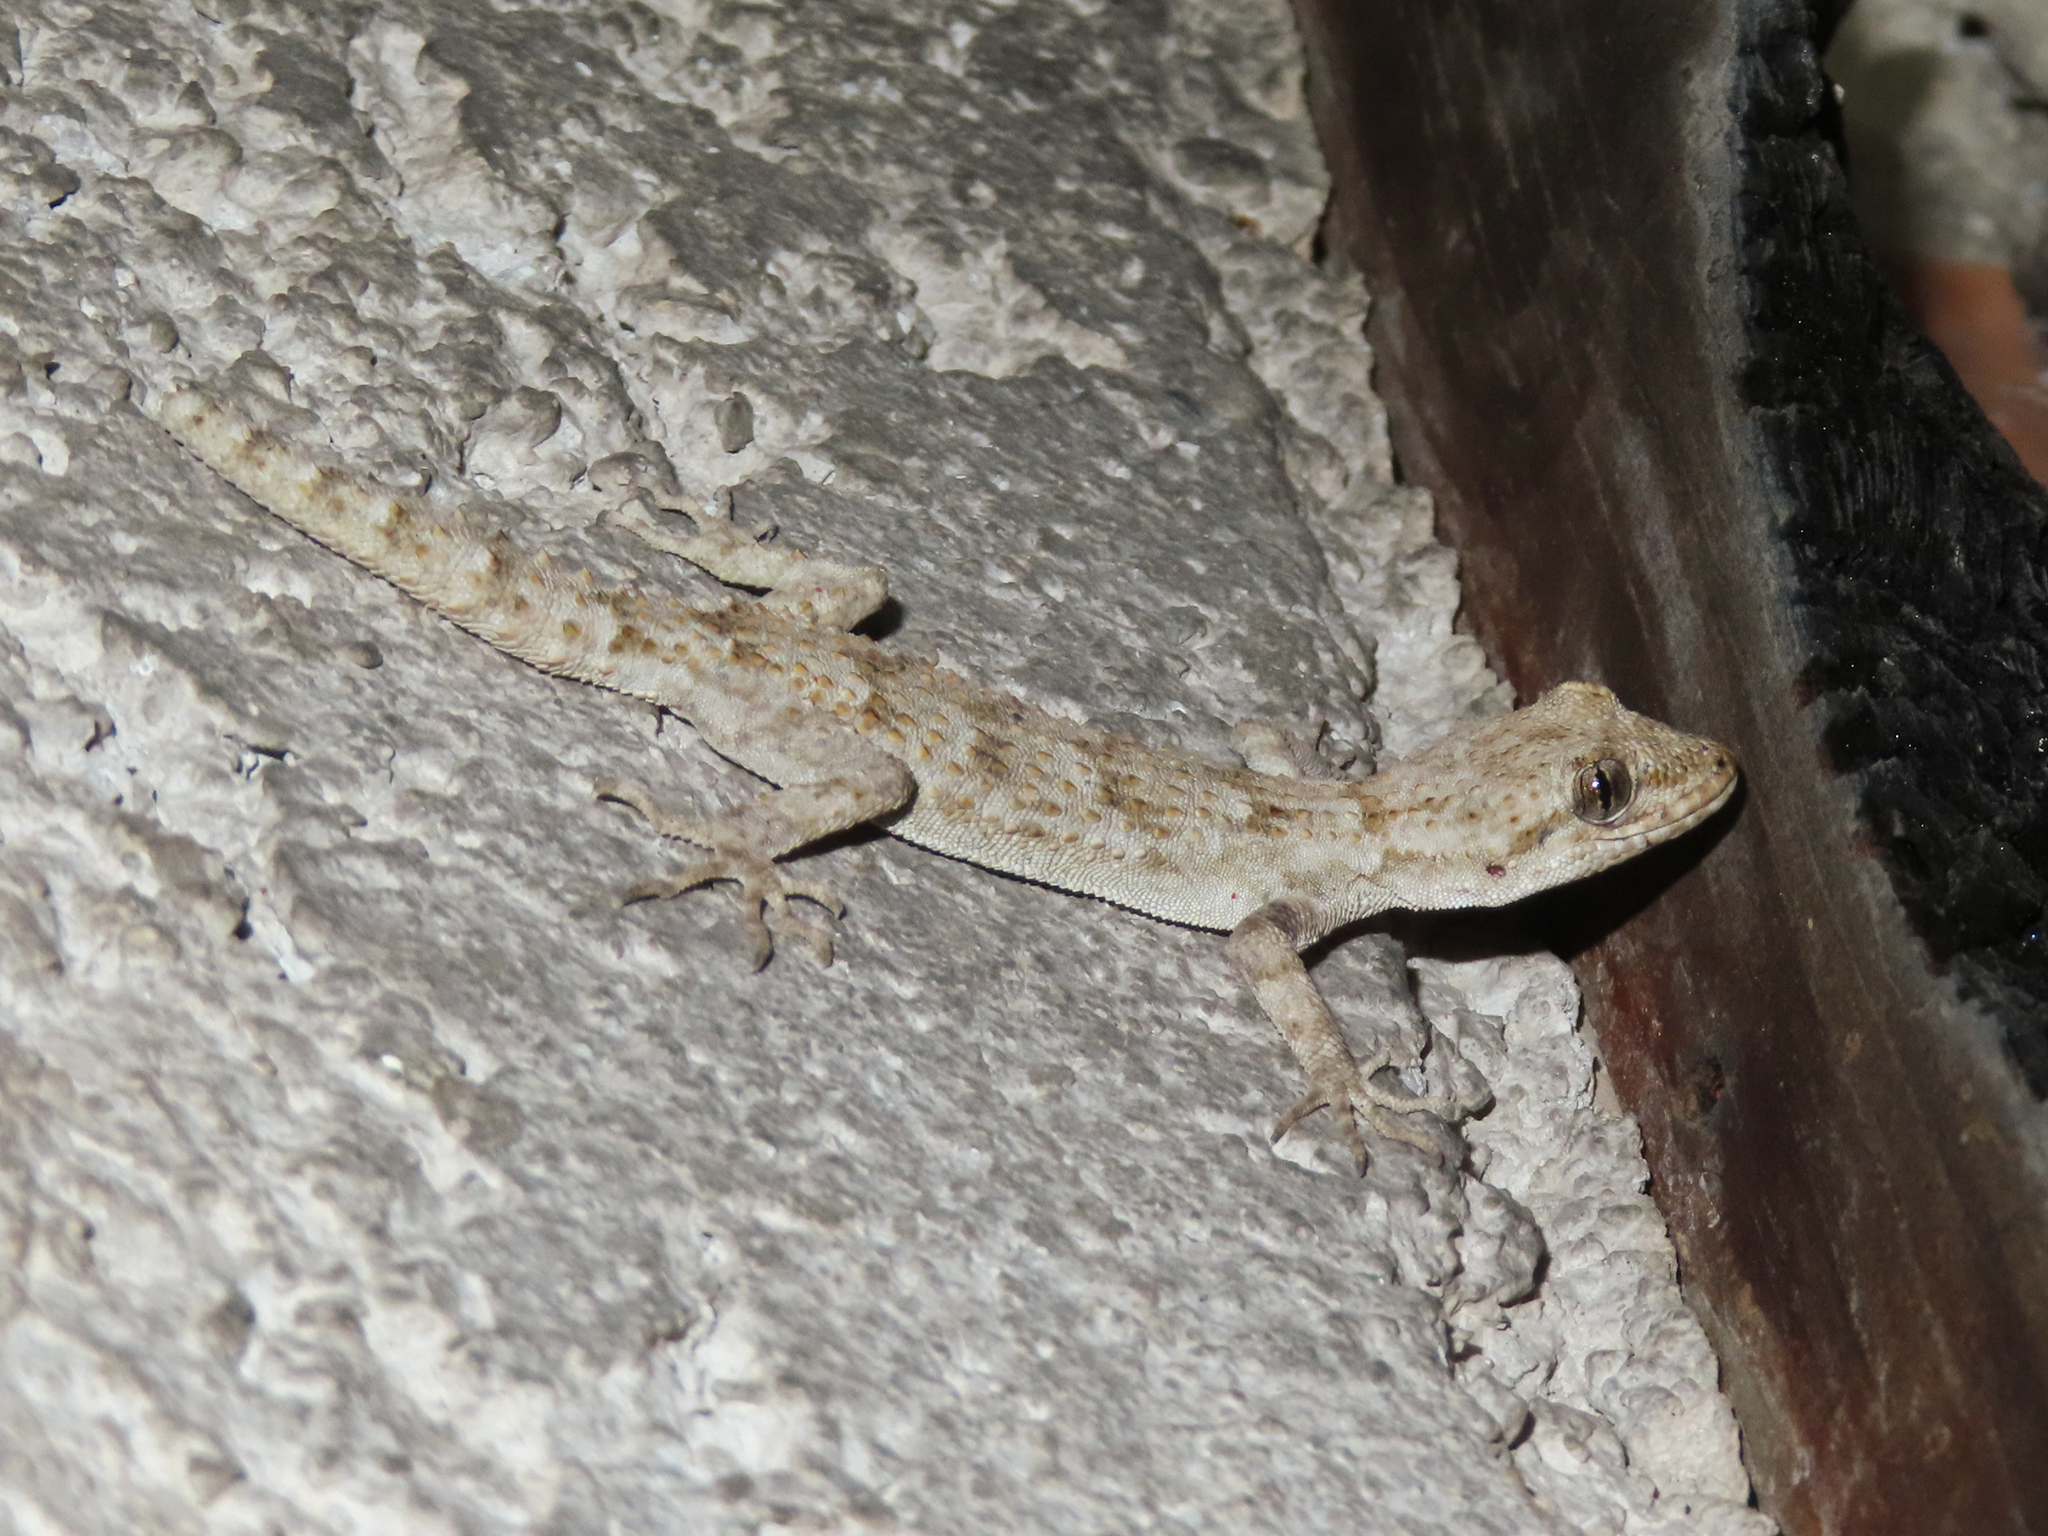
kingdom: Animalia
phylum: Chordata
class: Squamata
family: Gekkonidae
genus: Mediodactylus
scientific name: Mediodactylus kotschyi
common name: Kotschy's gecko
